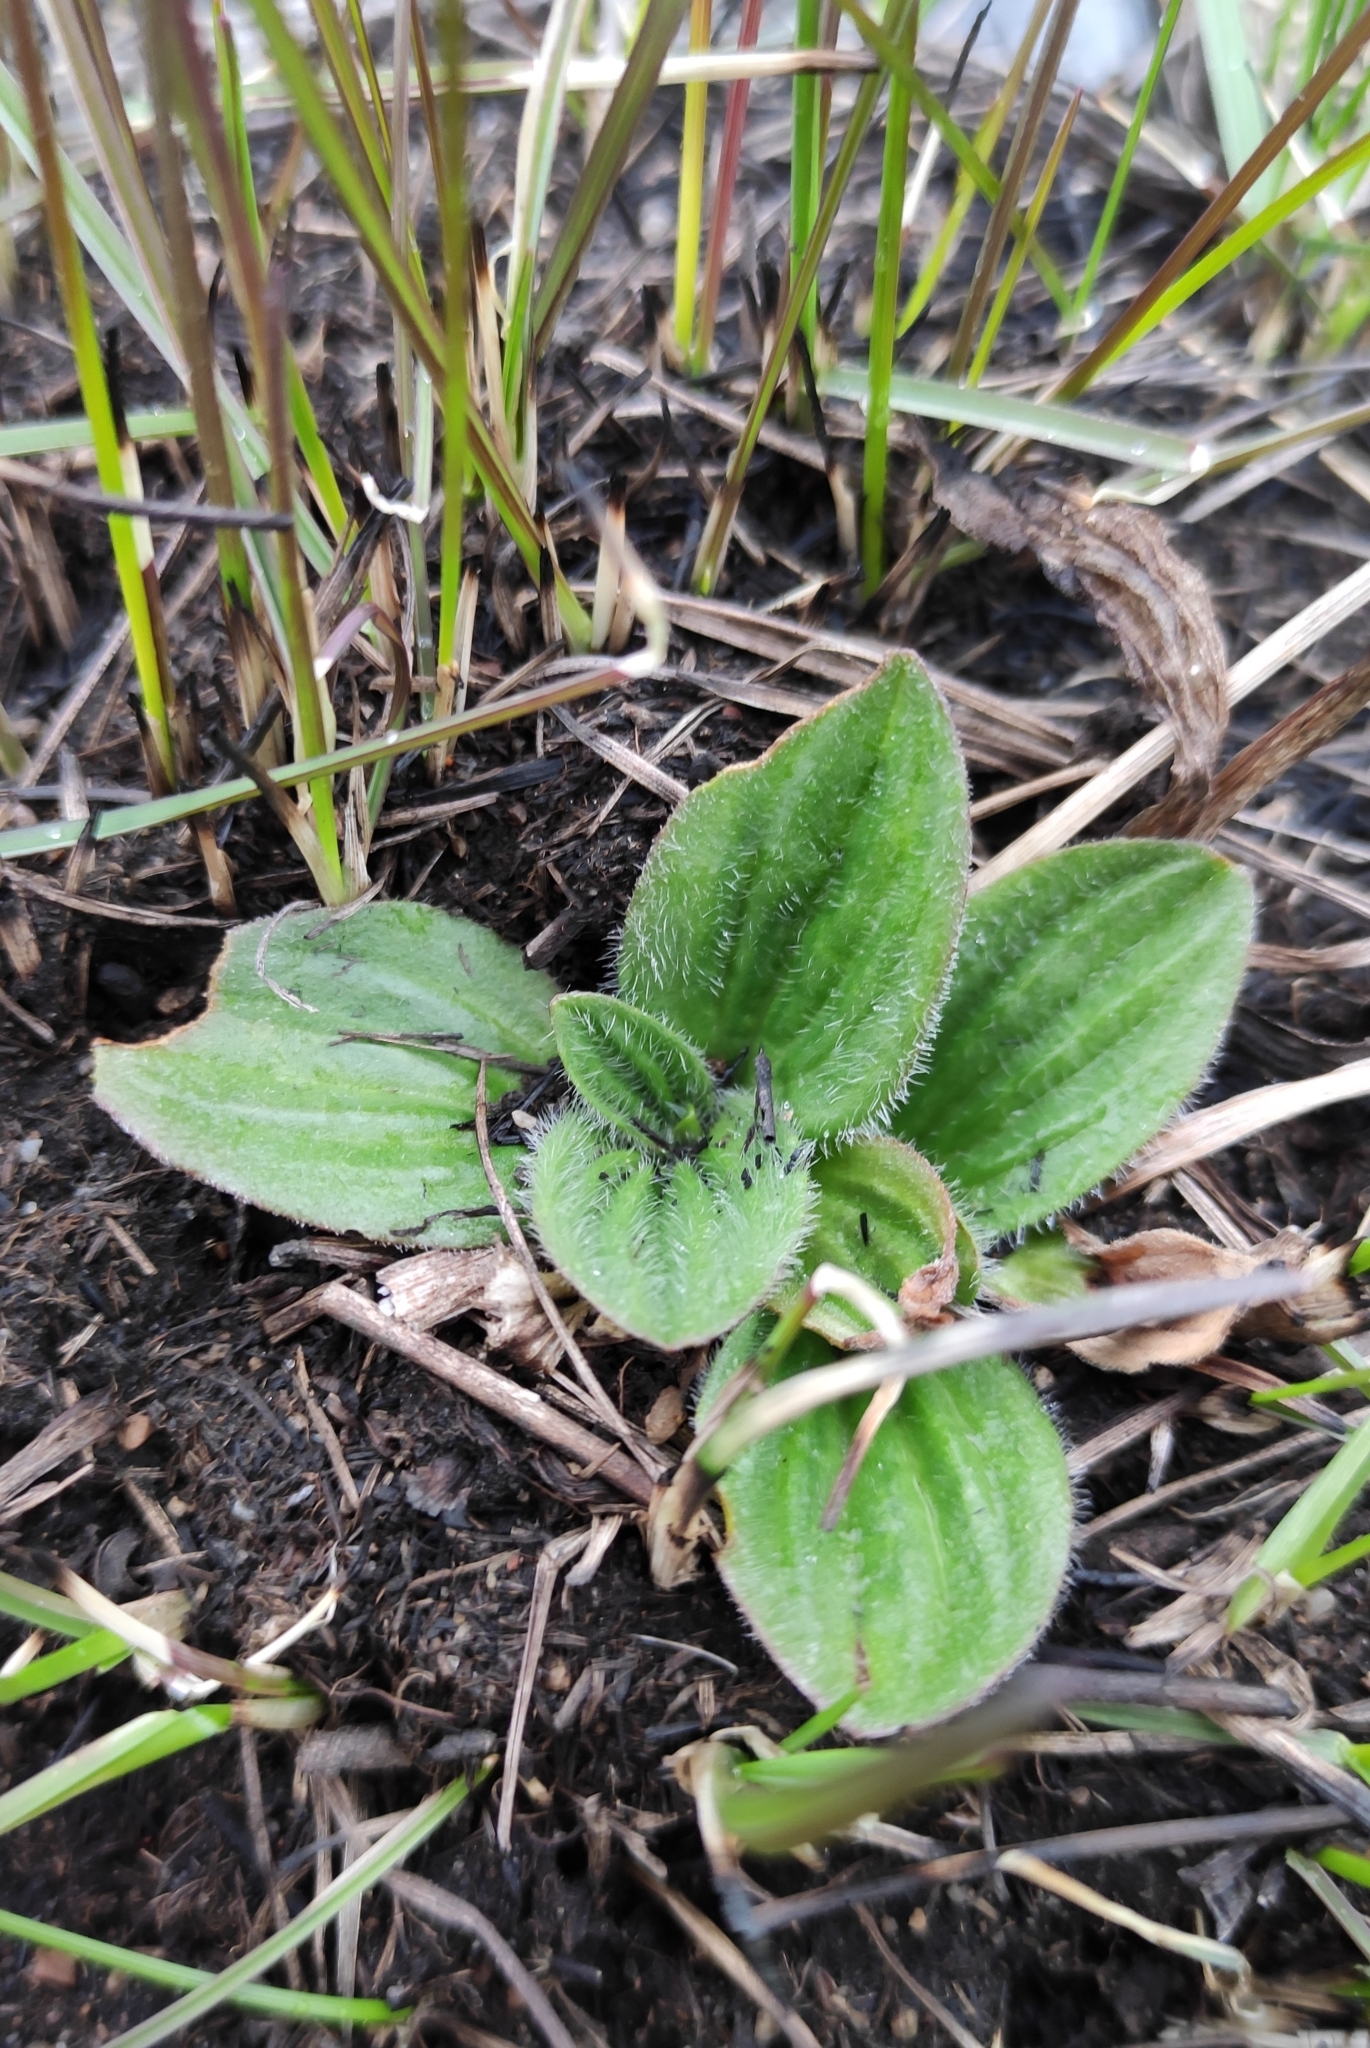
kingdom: Plantae
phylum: Tracheophyta
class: Magnoliopsida
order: Lamiales
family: Plantaginaceae
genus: Plantago
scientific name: Plantago media
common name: Hoary plantain
